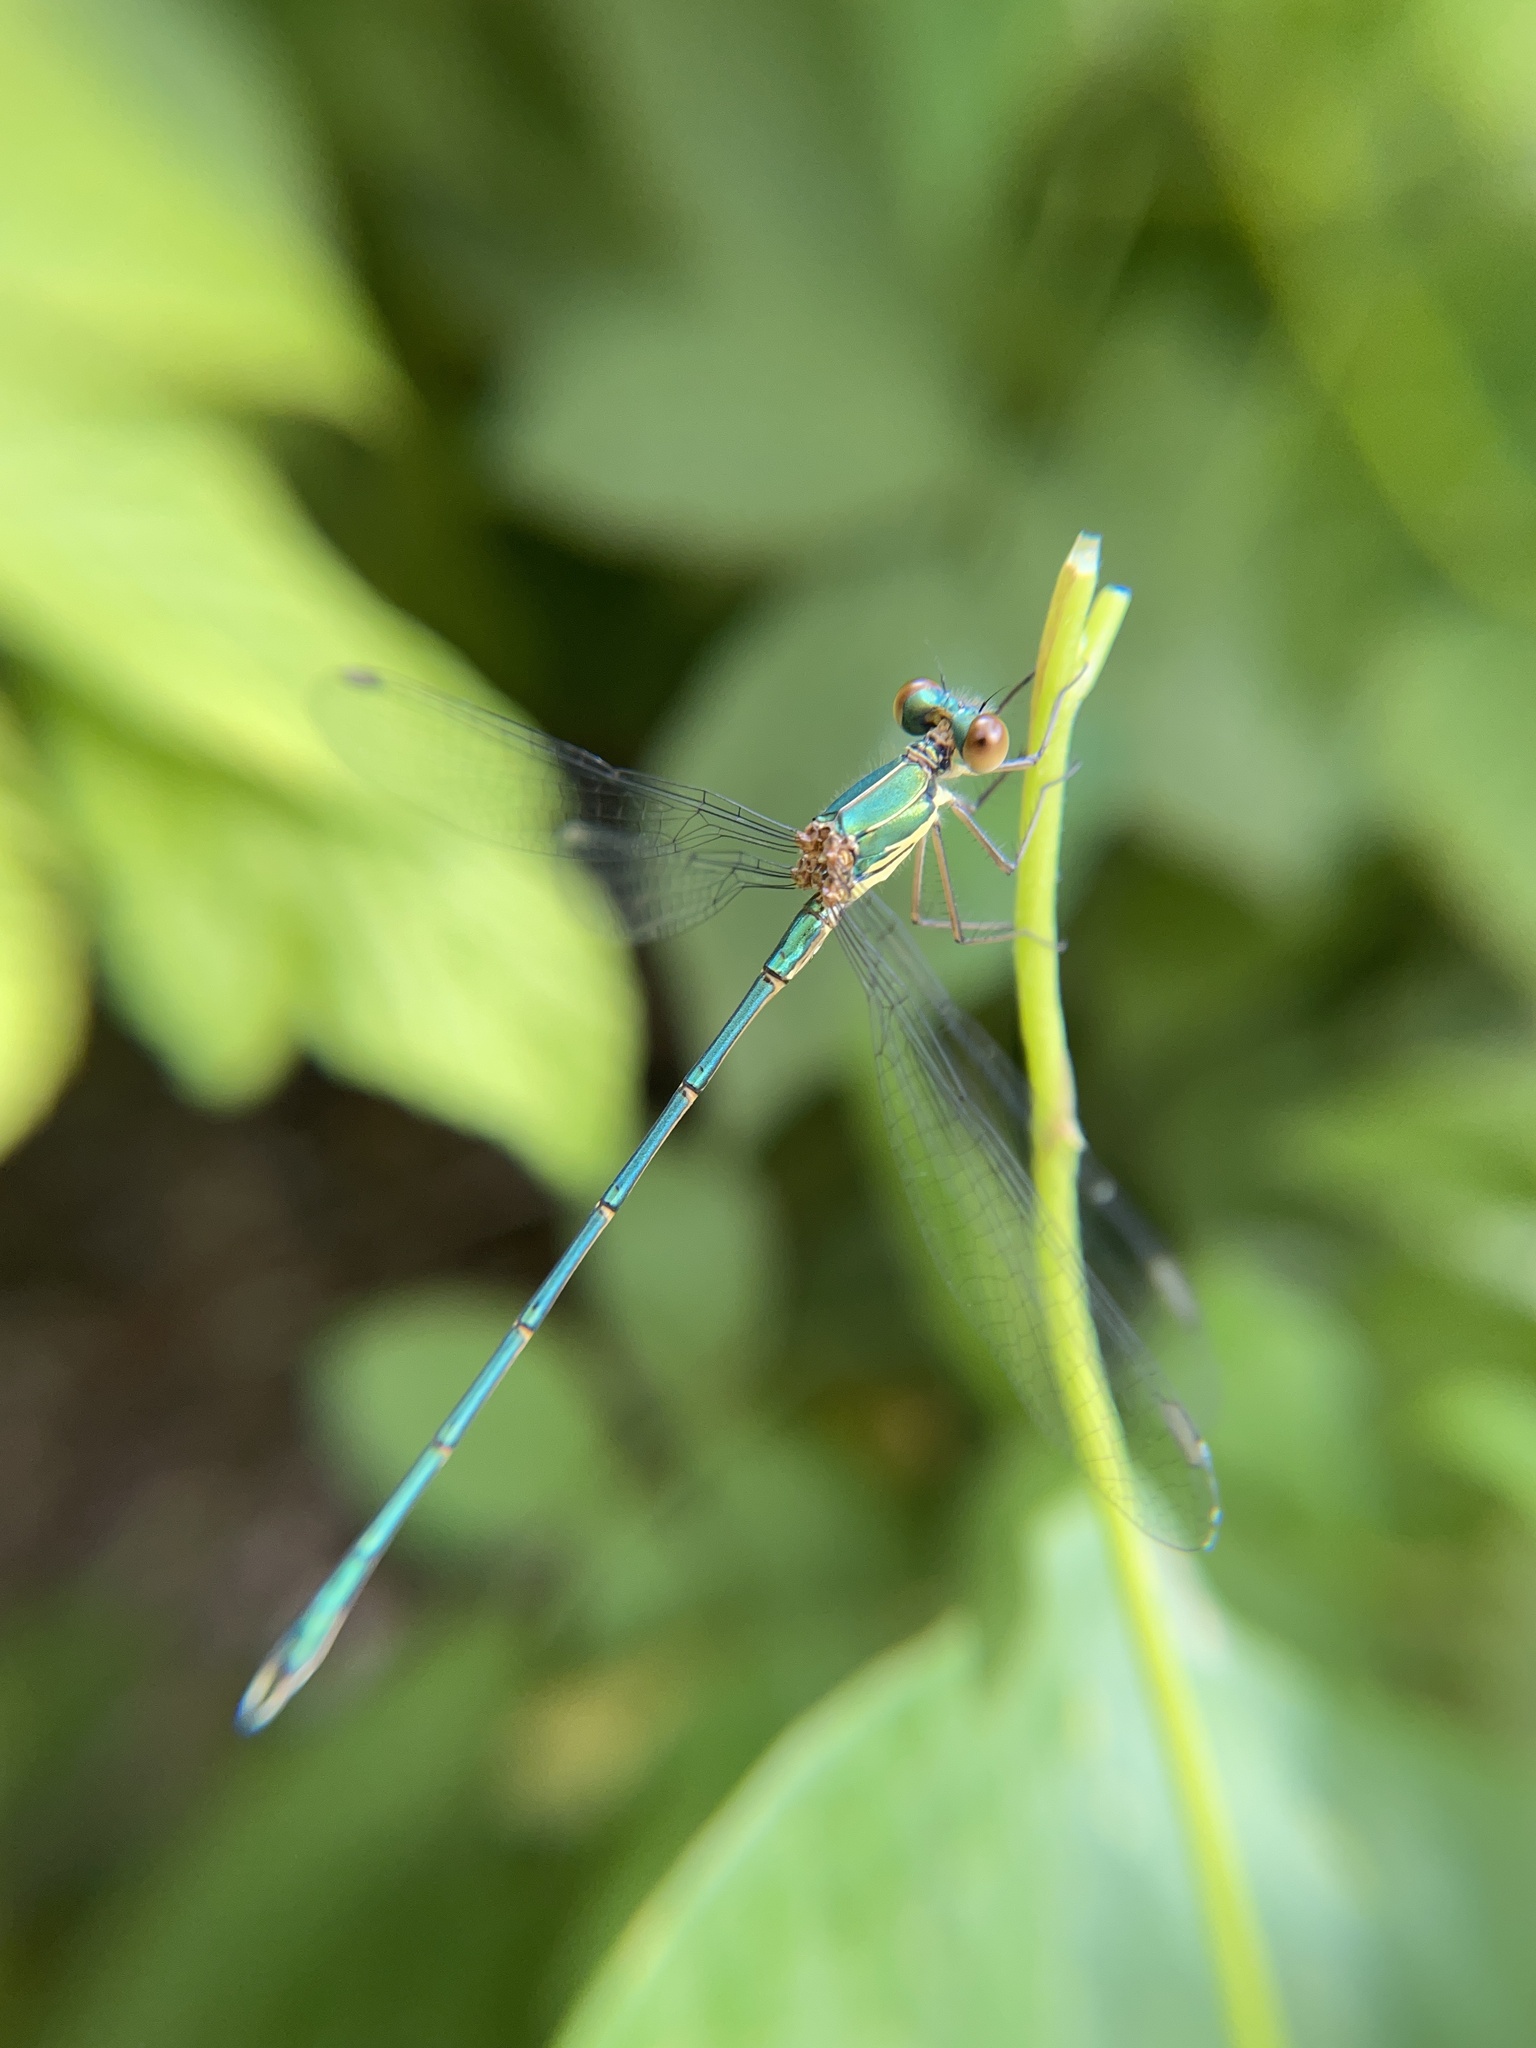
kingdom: Animalia
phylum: Arthropoda
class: Insecta
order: Odonata
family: Lestidae
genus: Chalcolestes
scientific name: Chalcolestes viridis
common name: Green emerald damselfly
